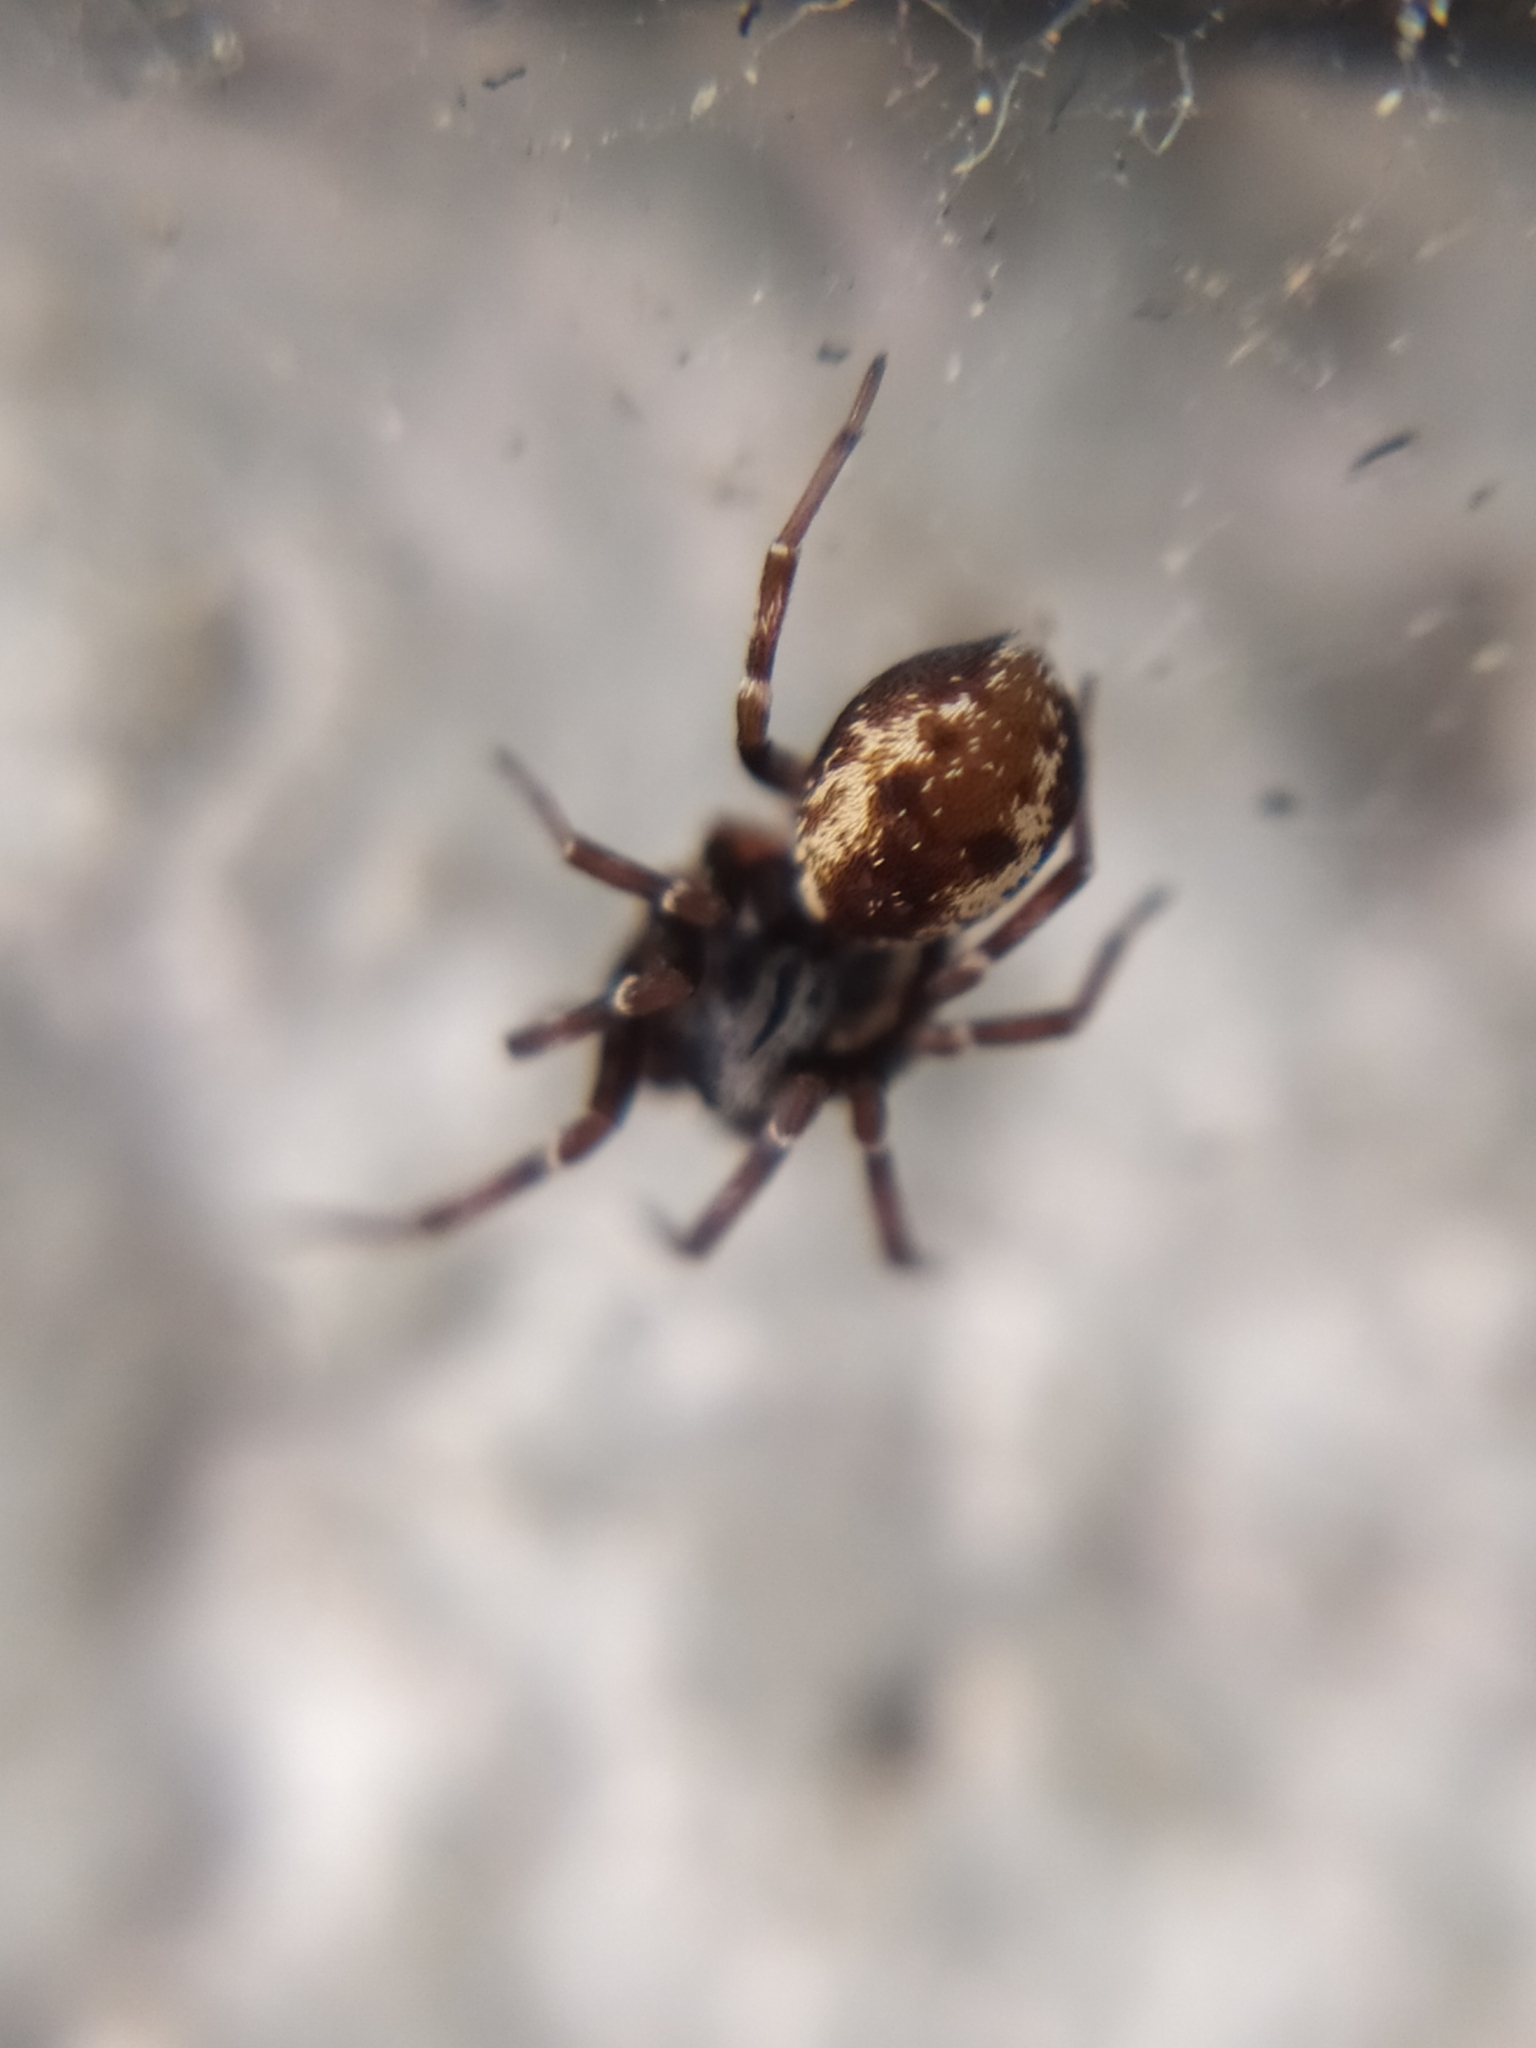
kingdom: Animalia
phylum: Arthropoda
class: Arachnida
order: Araneae
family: Dictynidae
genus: Brigittea
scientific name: Brigittea civica
